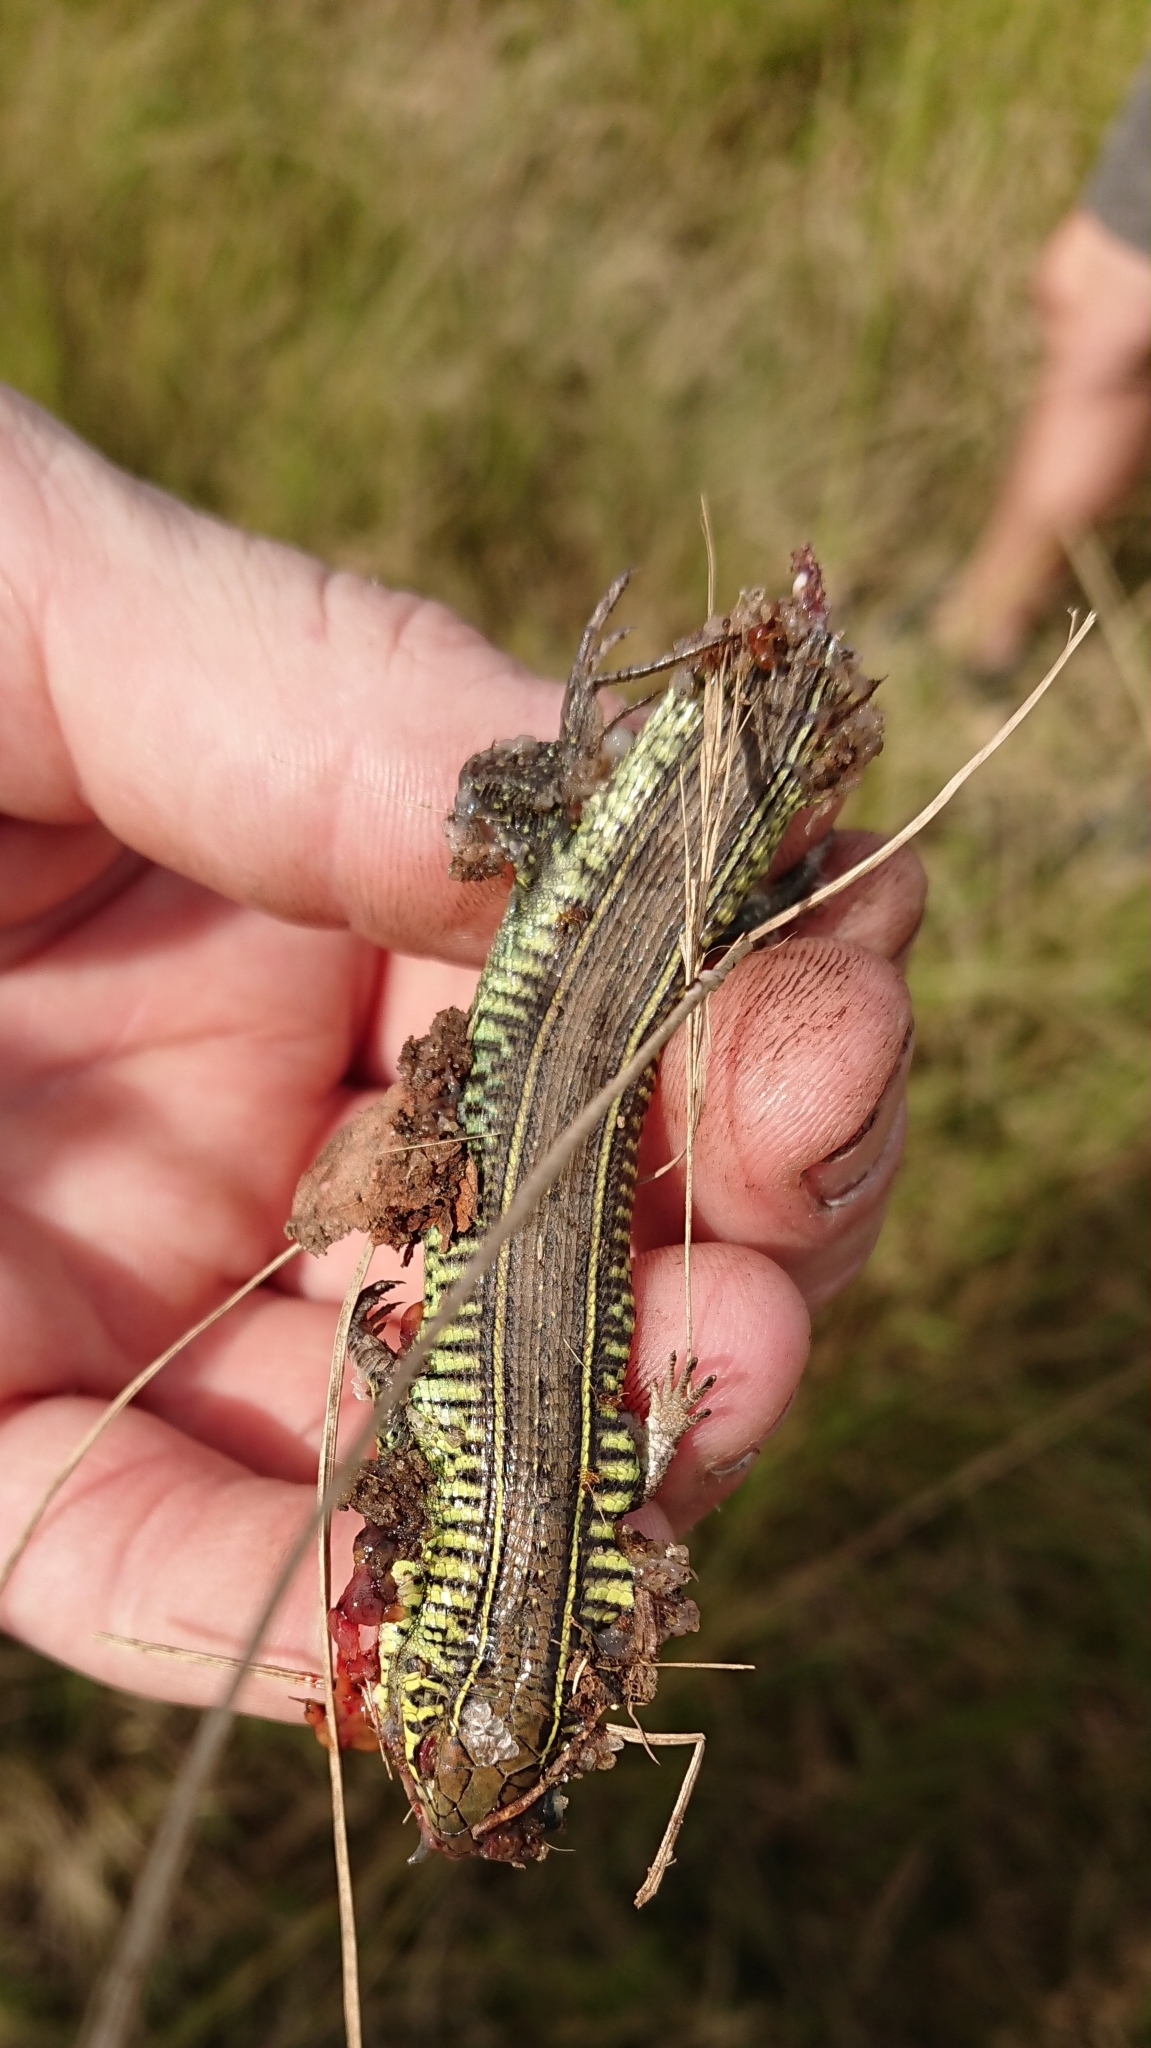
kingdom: Animalia
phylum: Chordata
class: Squamata
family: Gerrhosauridae
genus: Gerrhosaurus
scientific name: Gerrhosaurus flavigularis
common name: Yellow-throated plated lizard
